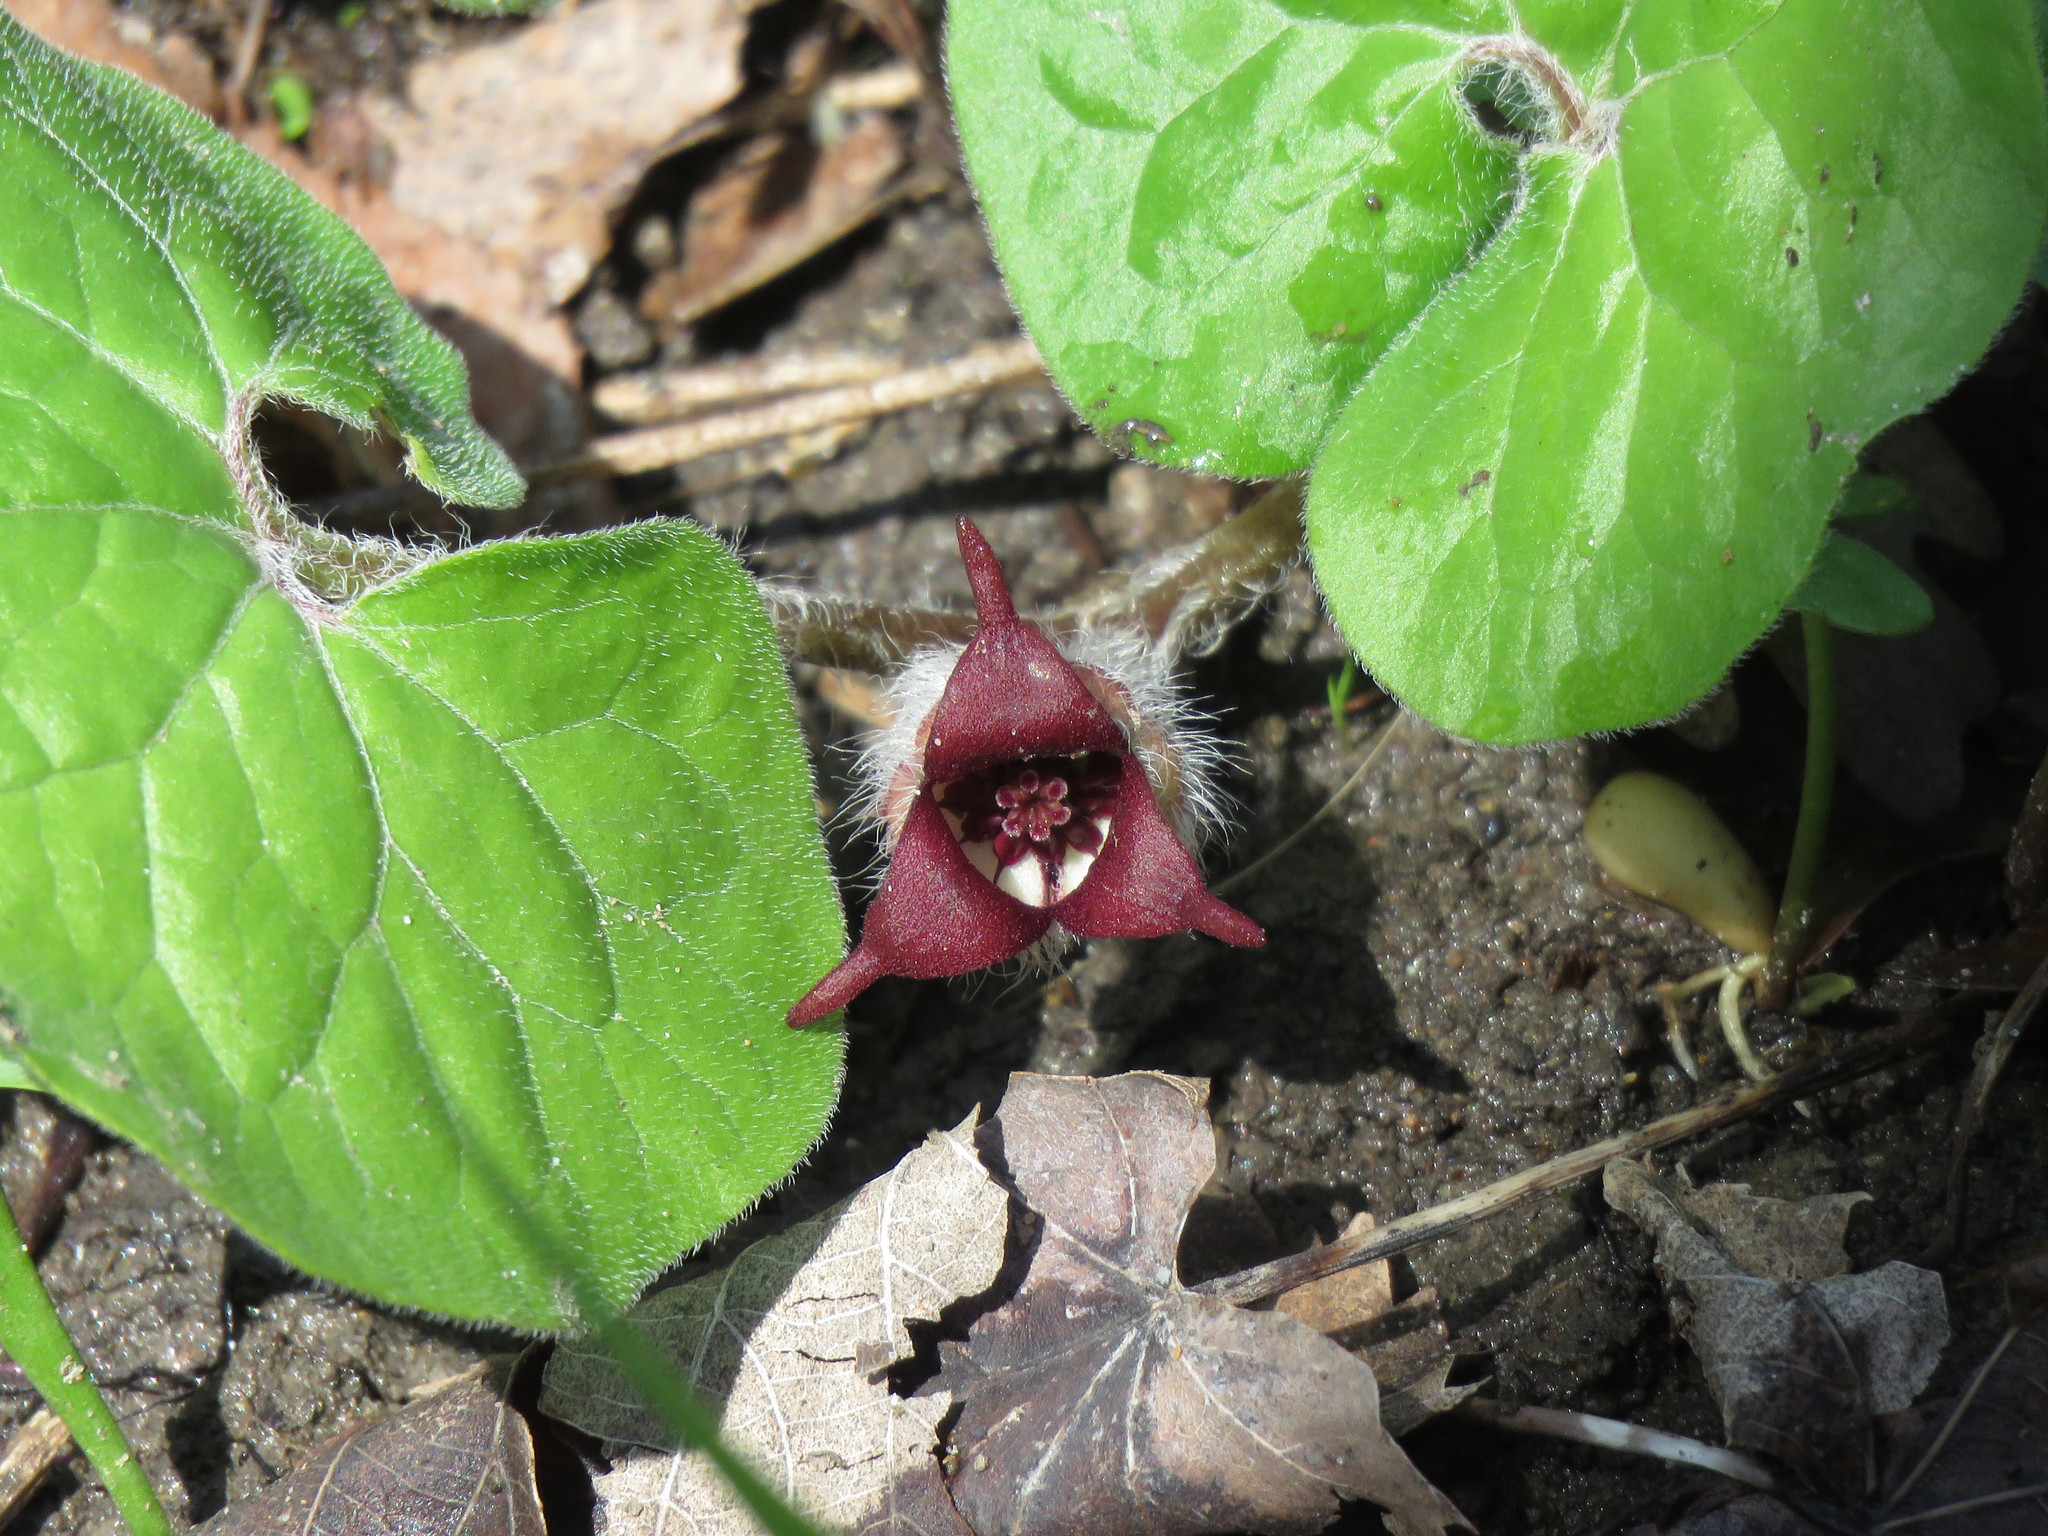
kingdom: Plantae
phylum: Tracheophyta
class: Magnoliopsida
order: Piperales
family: Aristolochiaceae
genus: Asarum
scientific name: Asarum canadense
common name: Wild ginger
